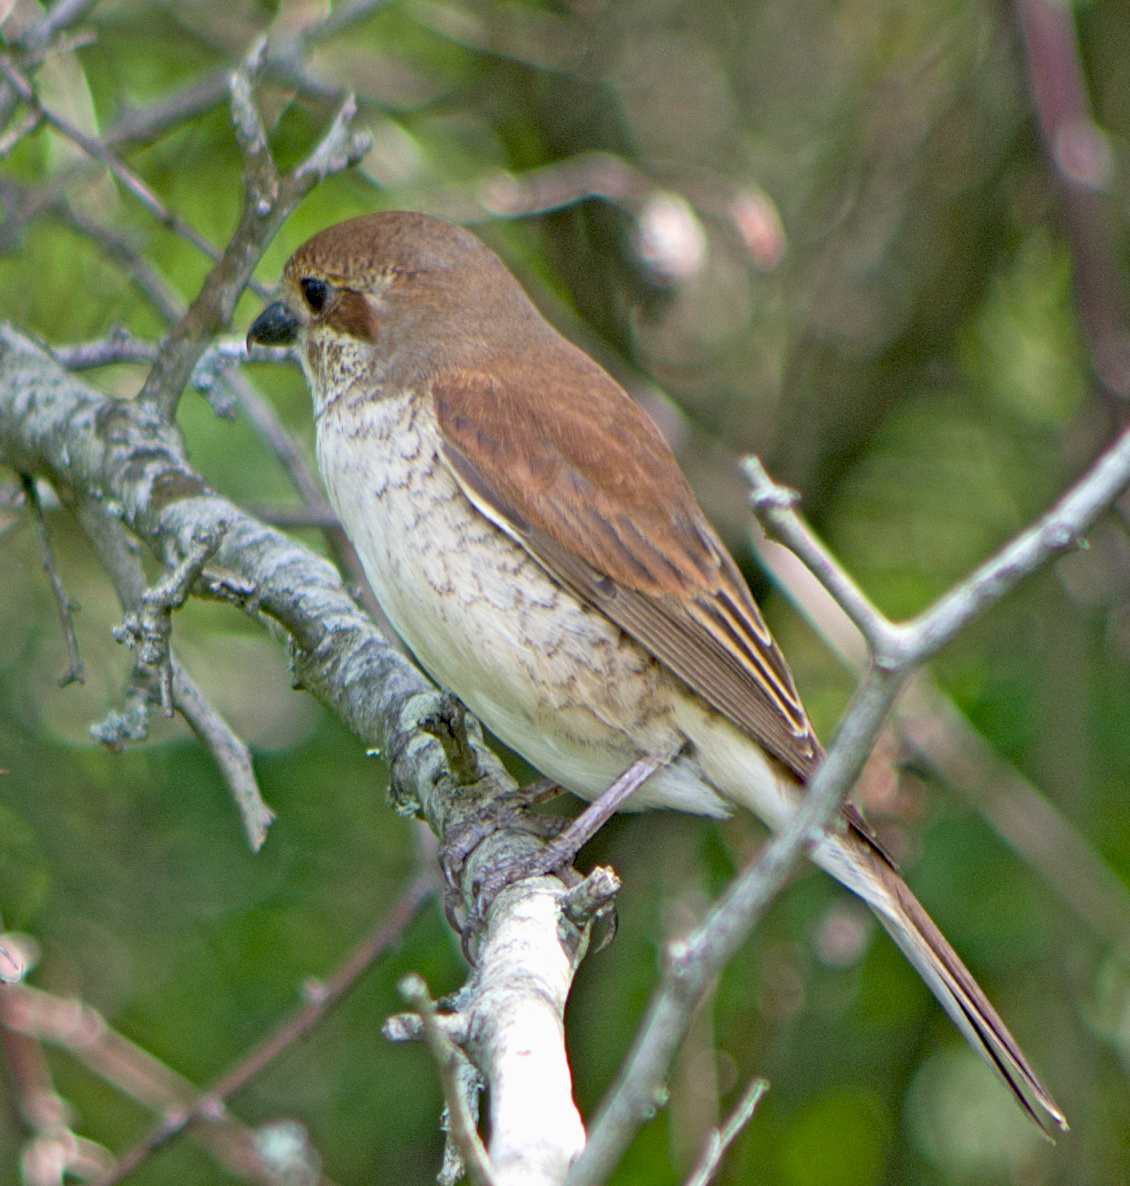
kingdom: Animalia
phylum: Chordata
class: Aves
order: Passeriformes
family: Laniidae
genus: Lanius
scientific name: Lanius collurio
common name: Red-backed shrike
